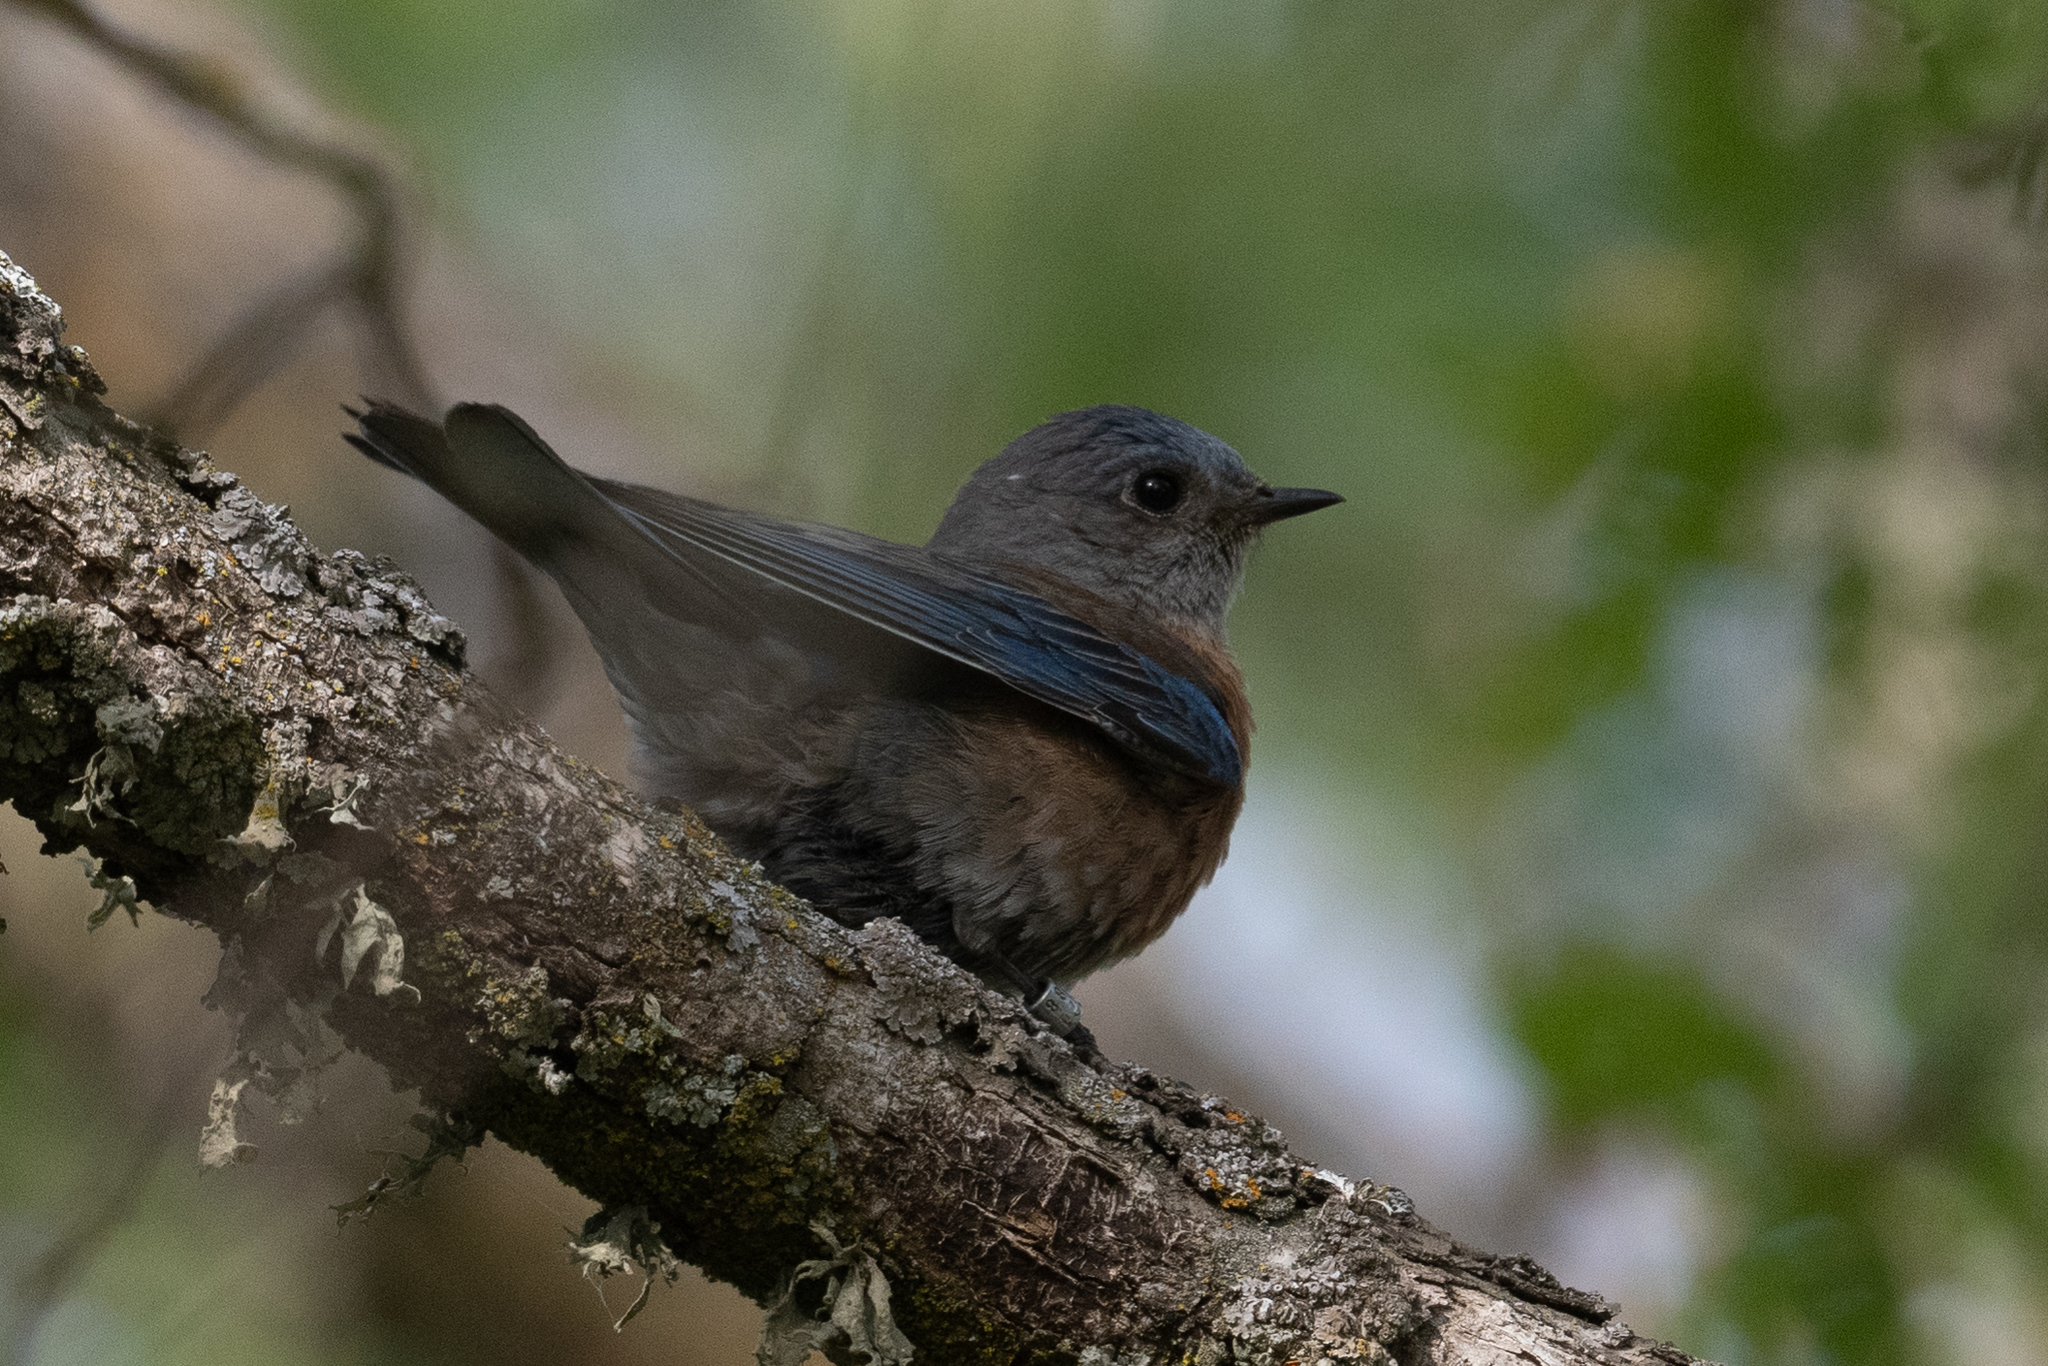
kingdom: Animalia
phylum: Chordata
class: Aves
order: Passeriformes
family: Turdidae
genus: Sialia
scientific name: Sialia mexicana
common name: Western bluebird
